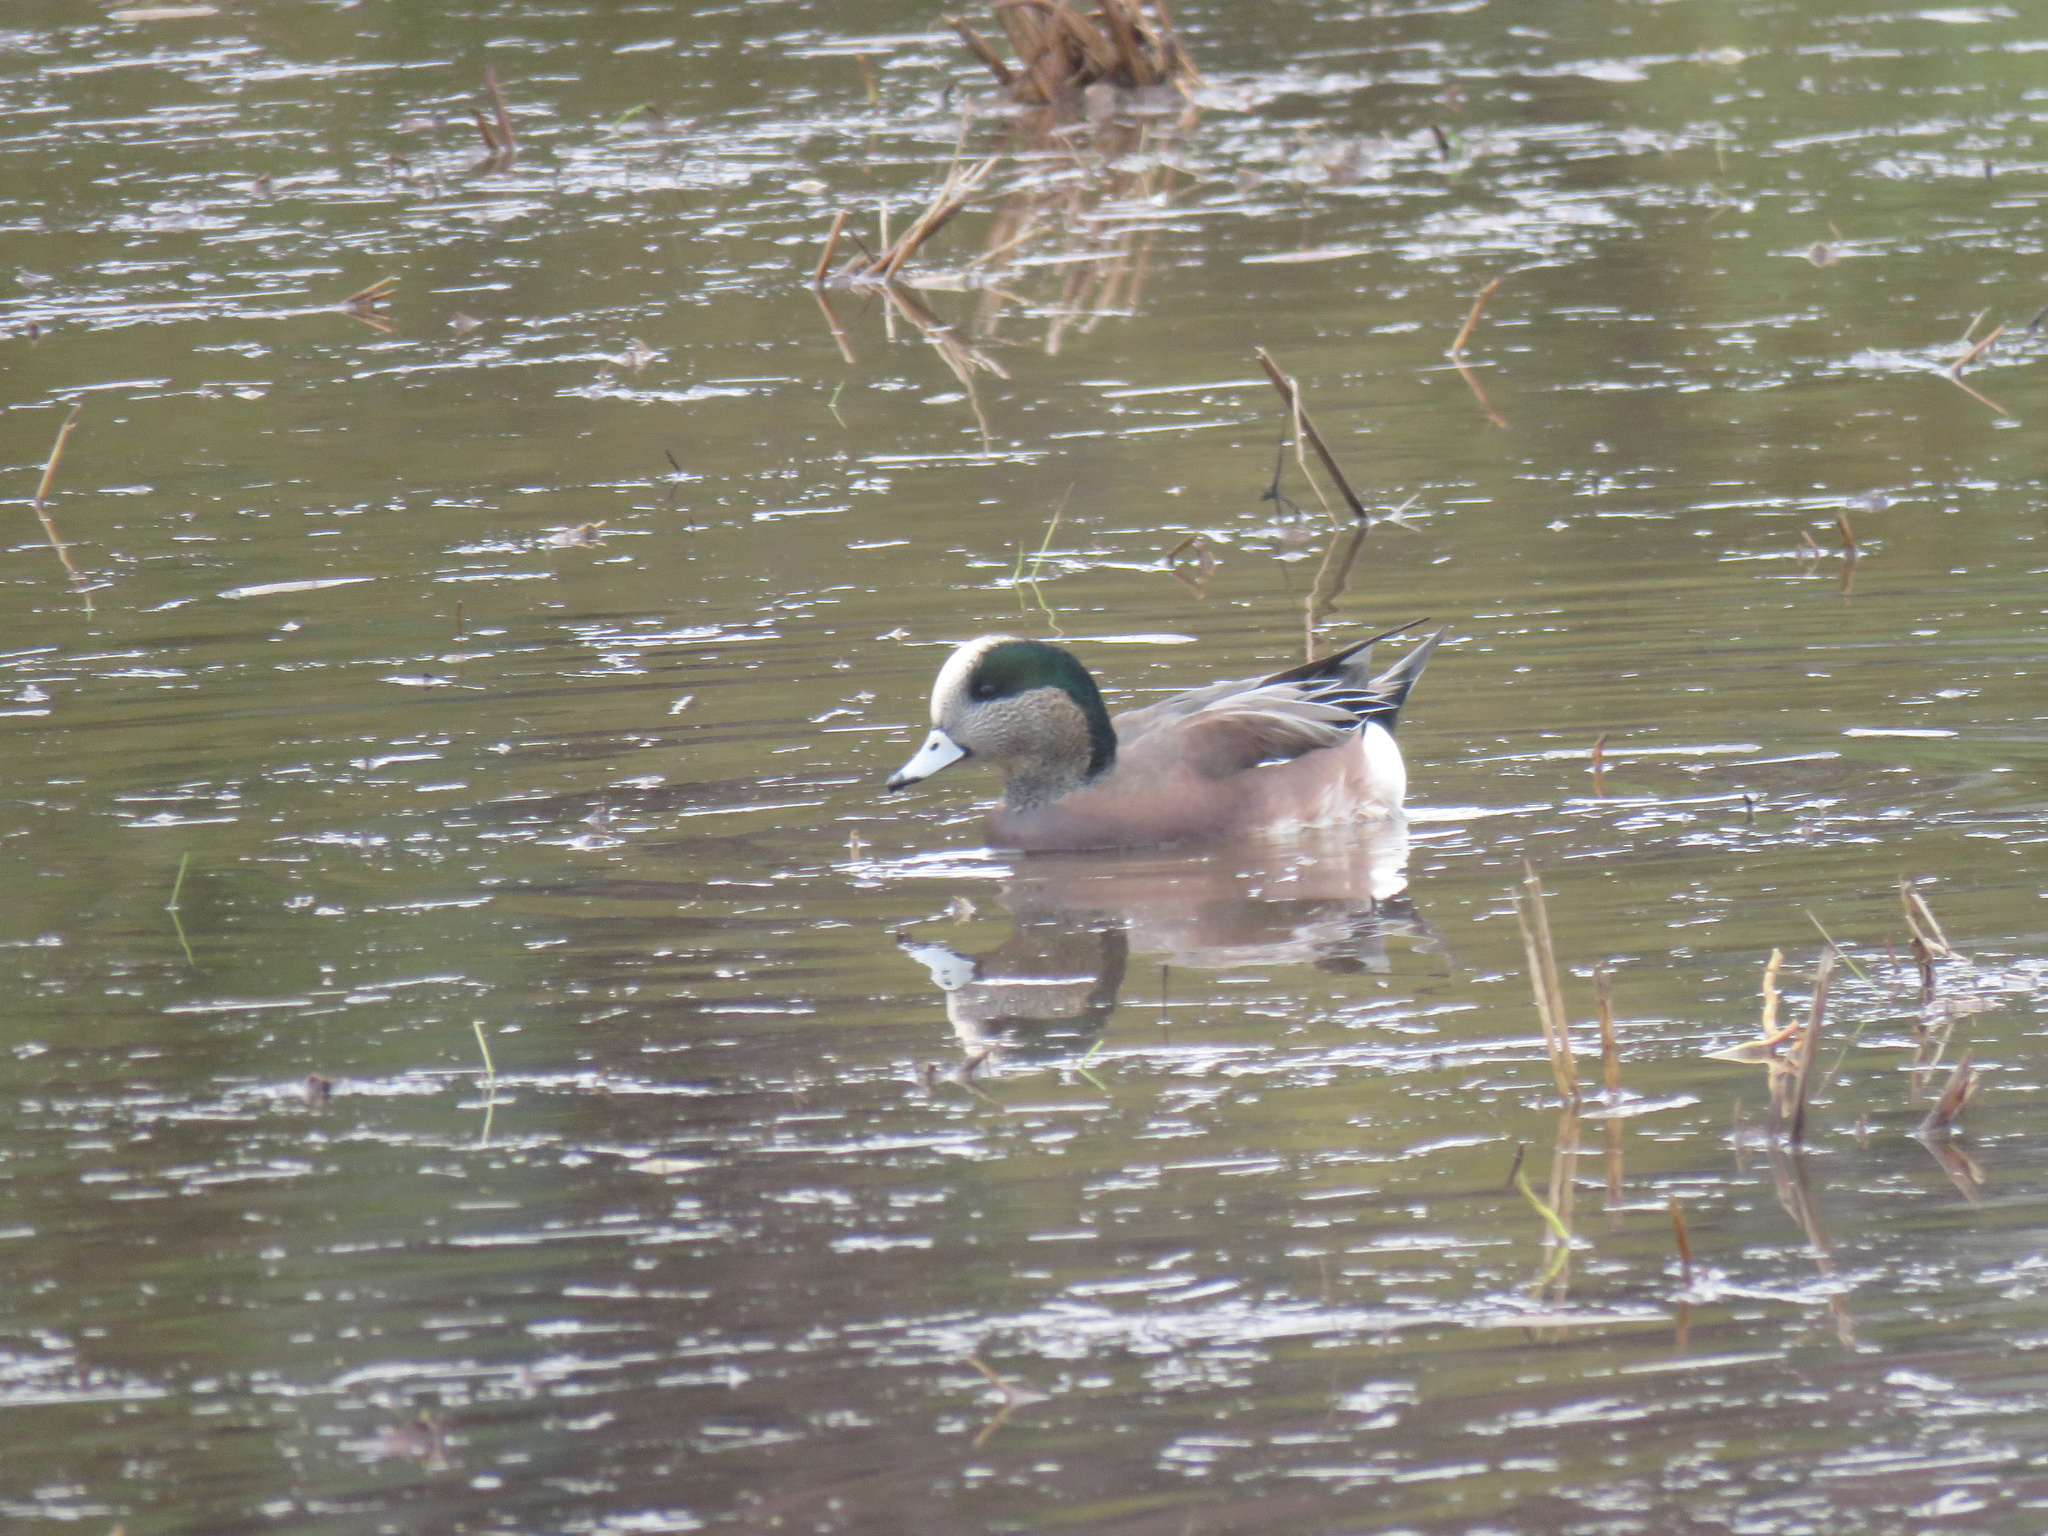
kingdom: Animalia
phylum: Chordata
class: Aves
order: Anseriformes
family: Anatidae
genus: Mareca
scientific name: Mareca americana
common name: American wigeon
